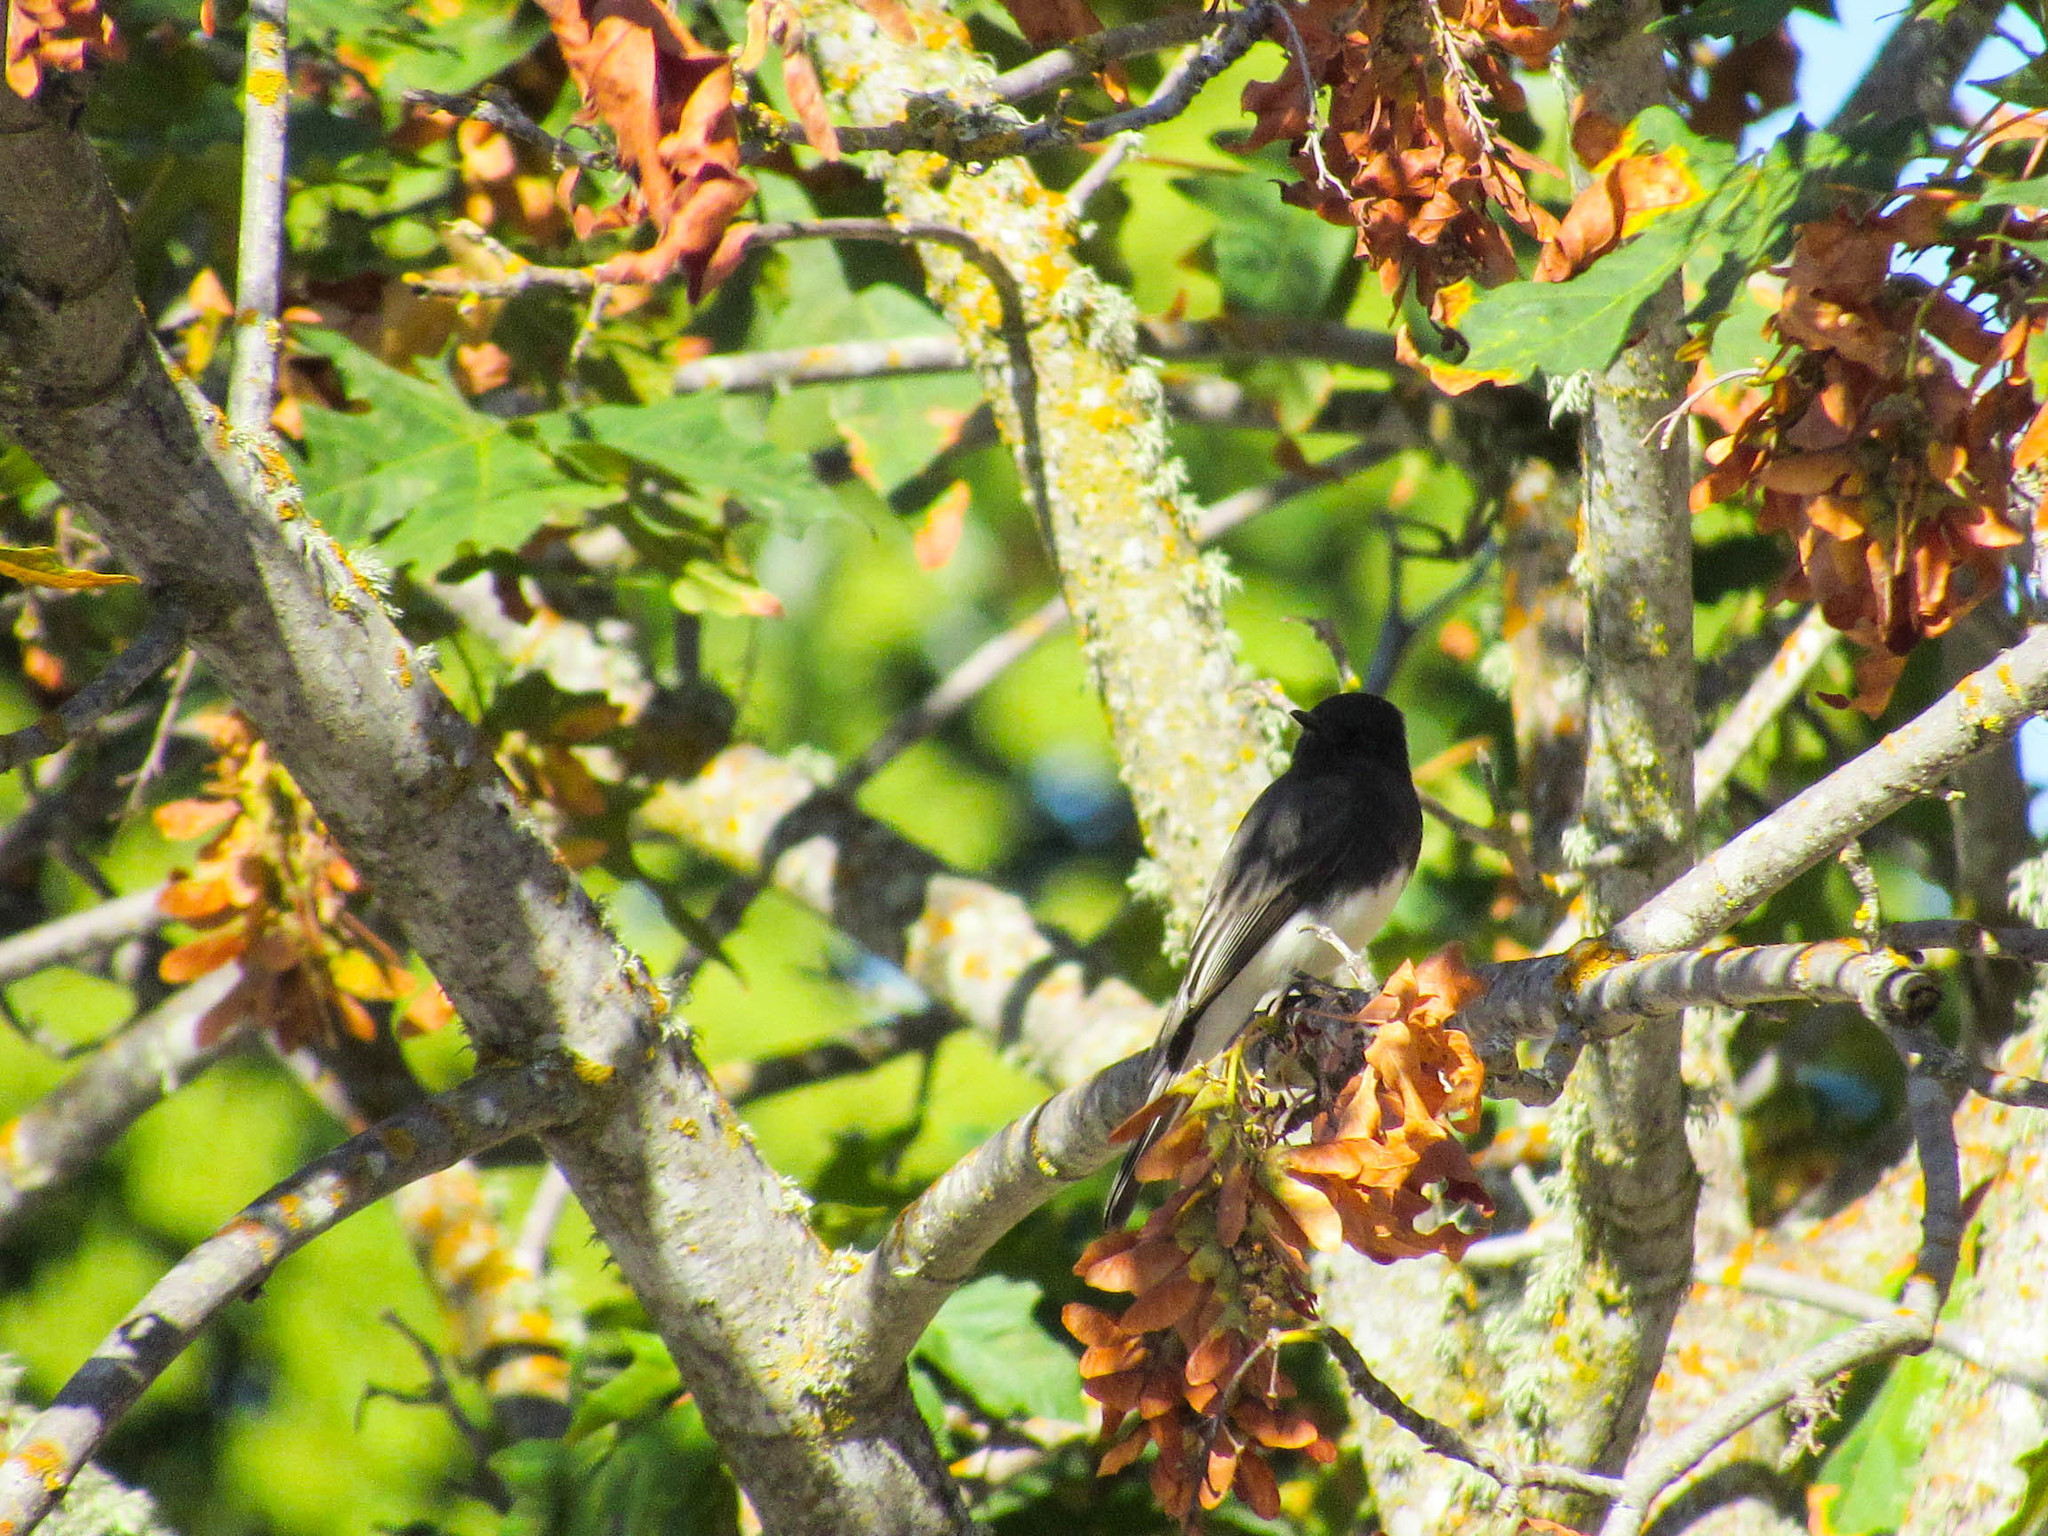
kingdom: Animalia
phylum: Chordata
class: Aves
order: Passeriformes
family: Tyrannidae
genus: Sayornis
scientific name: Sayornis nigricans
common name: Black phoebe
